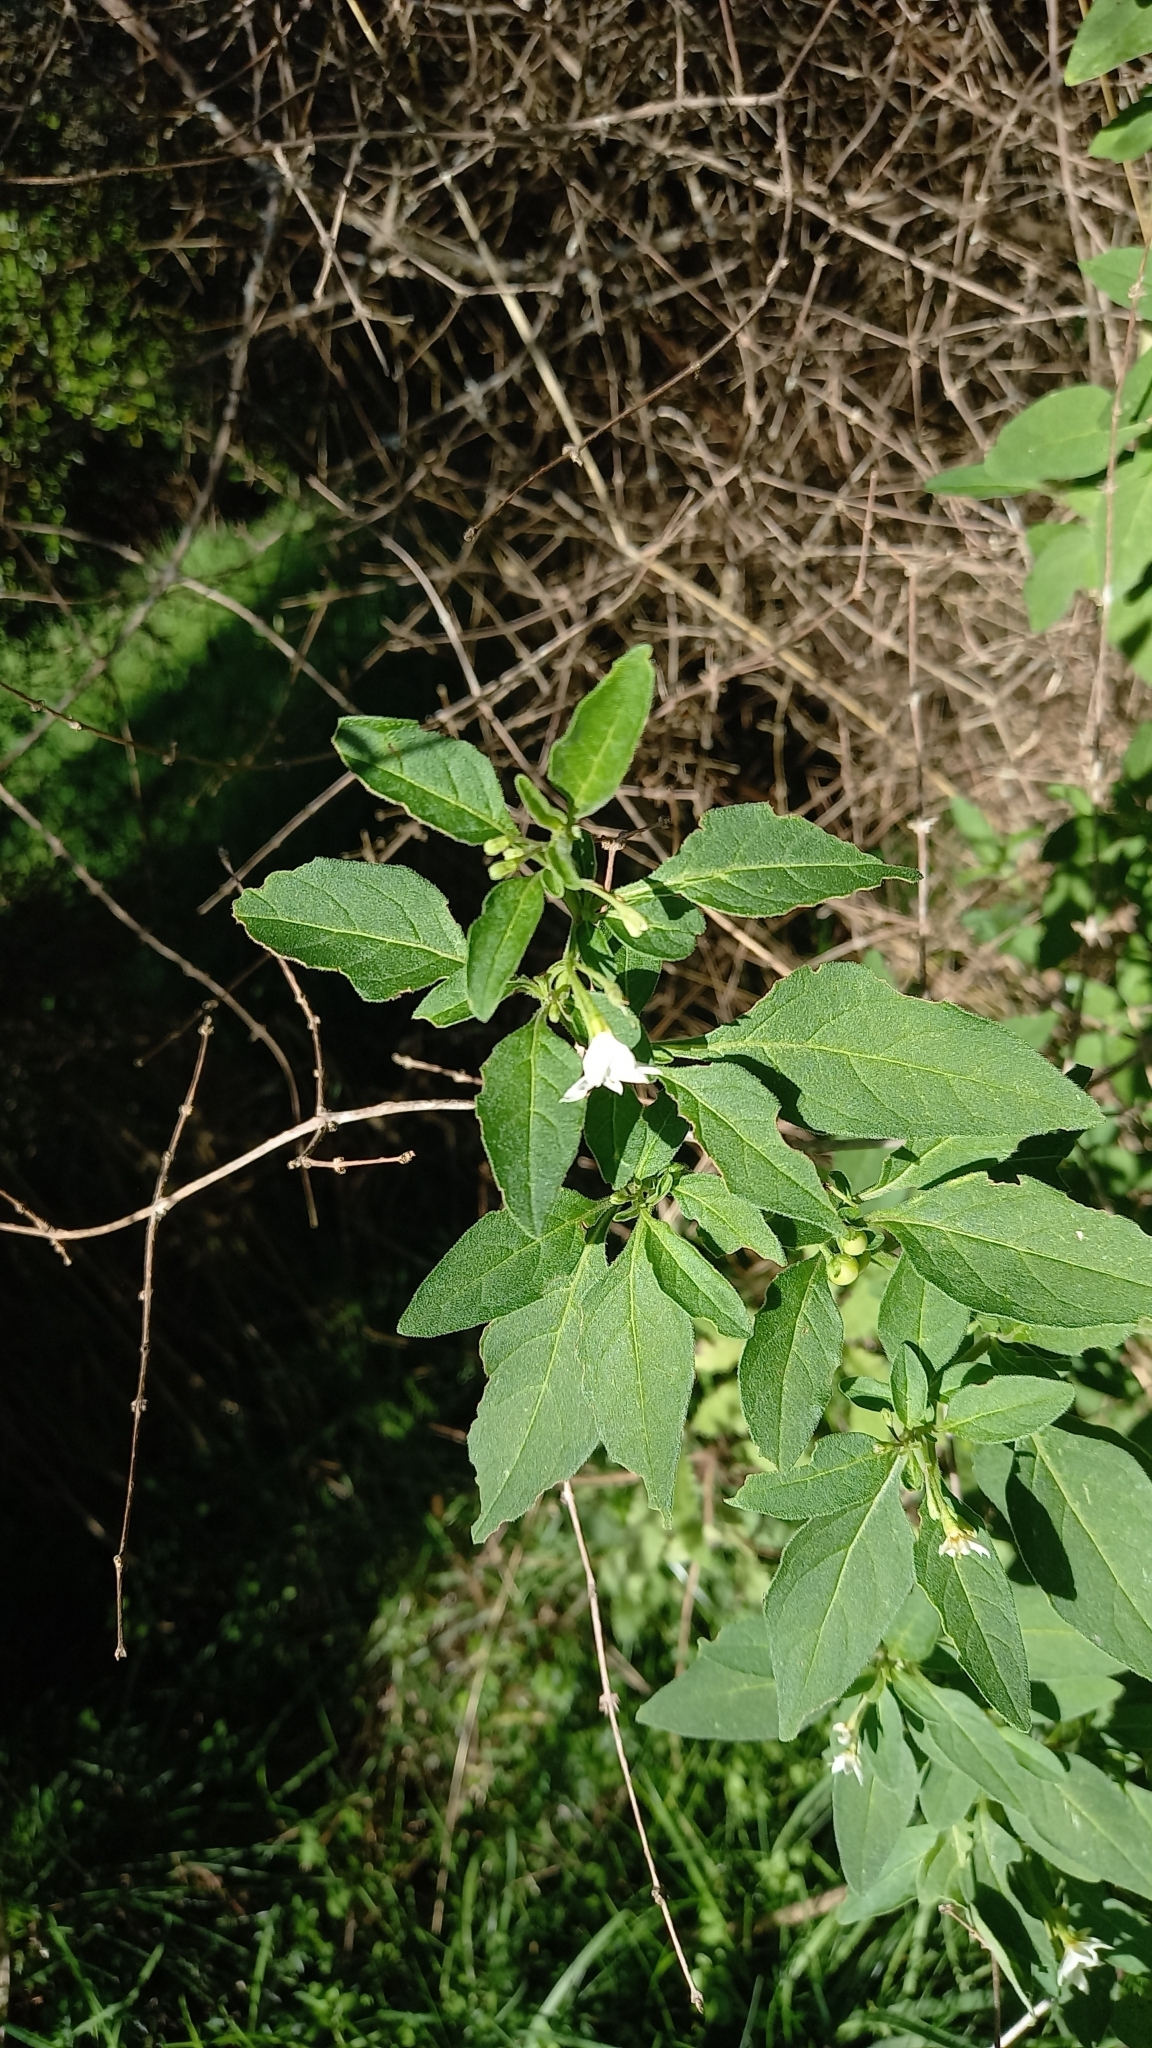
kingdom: Plantae
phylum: Tracheophyta
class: Magnoliopsida
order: Solanales
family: Solanaceae
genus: Solanum
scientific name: Solanum nigrum
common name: Black nightshade
